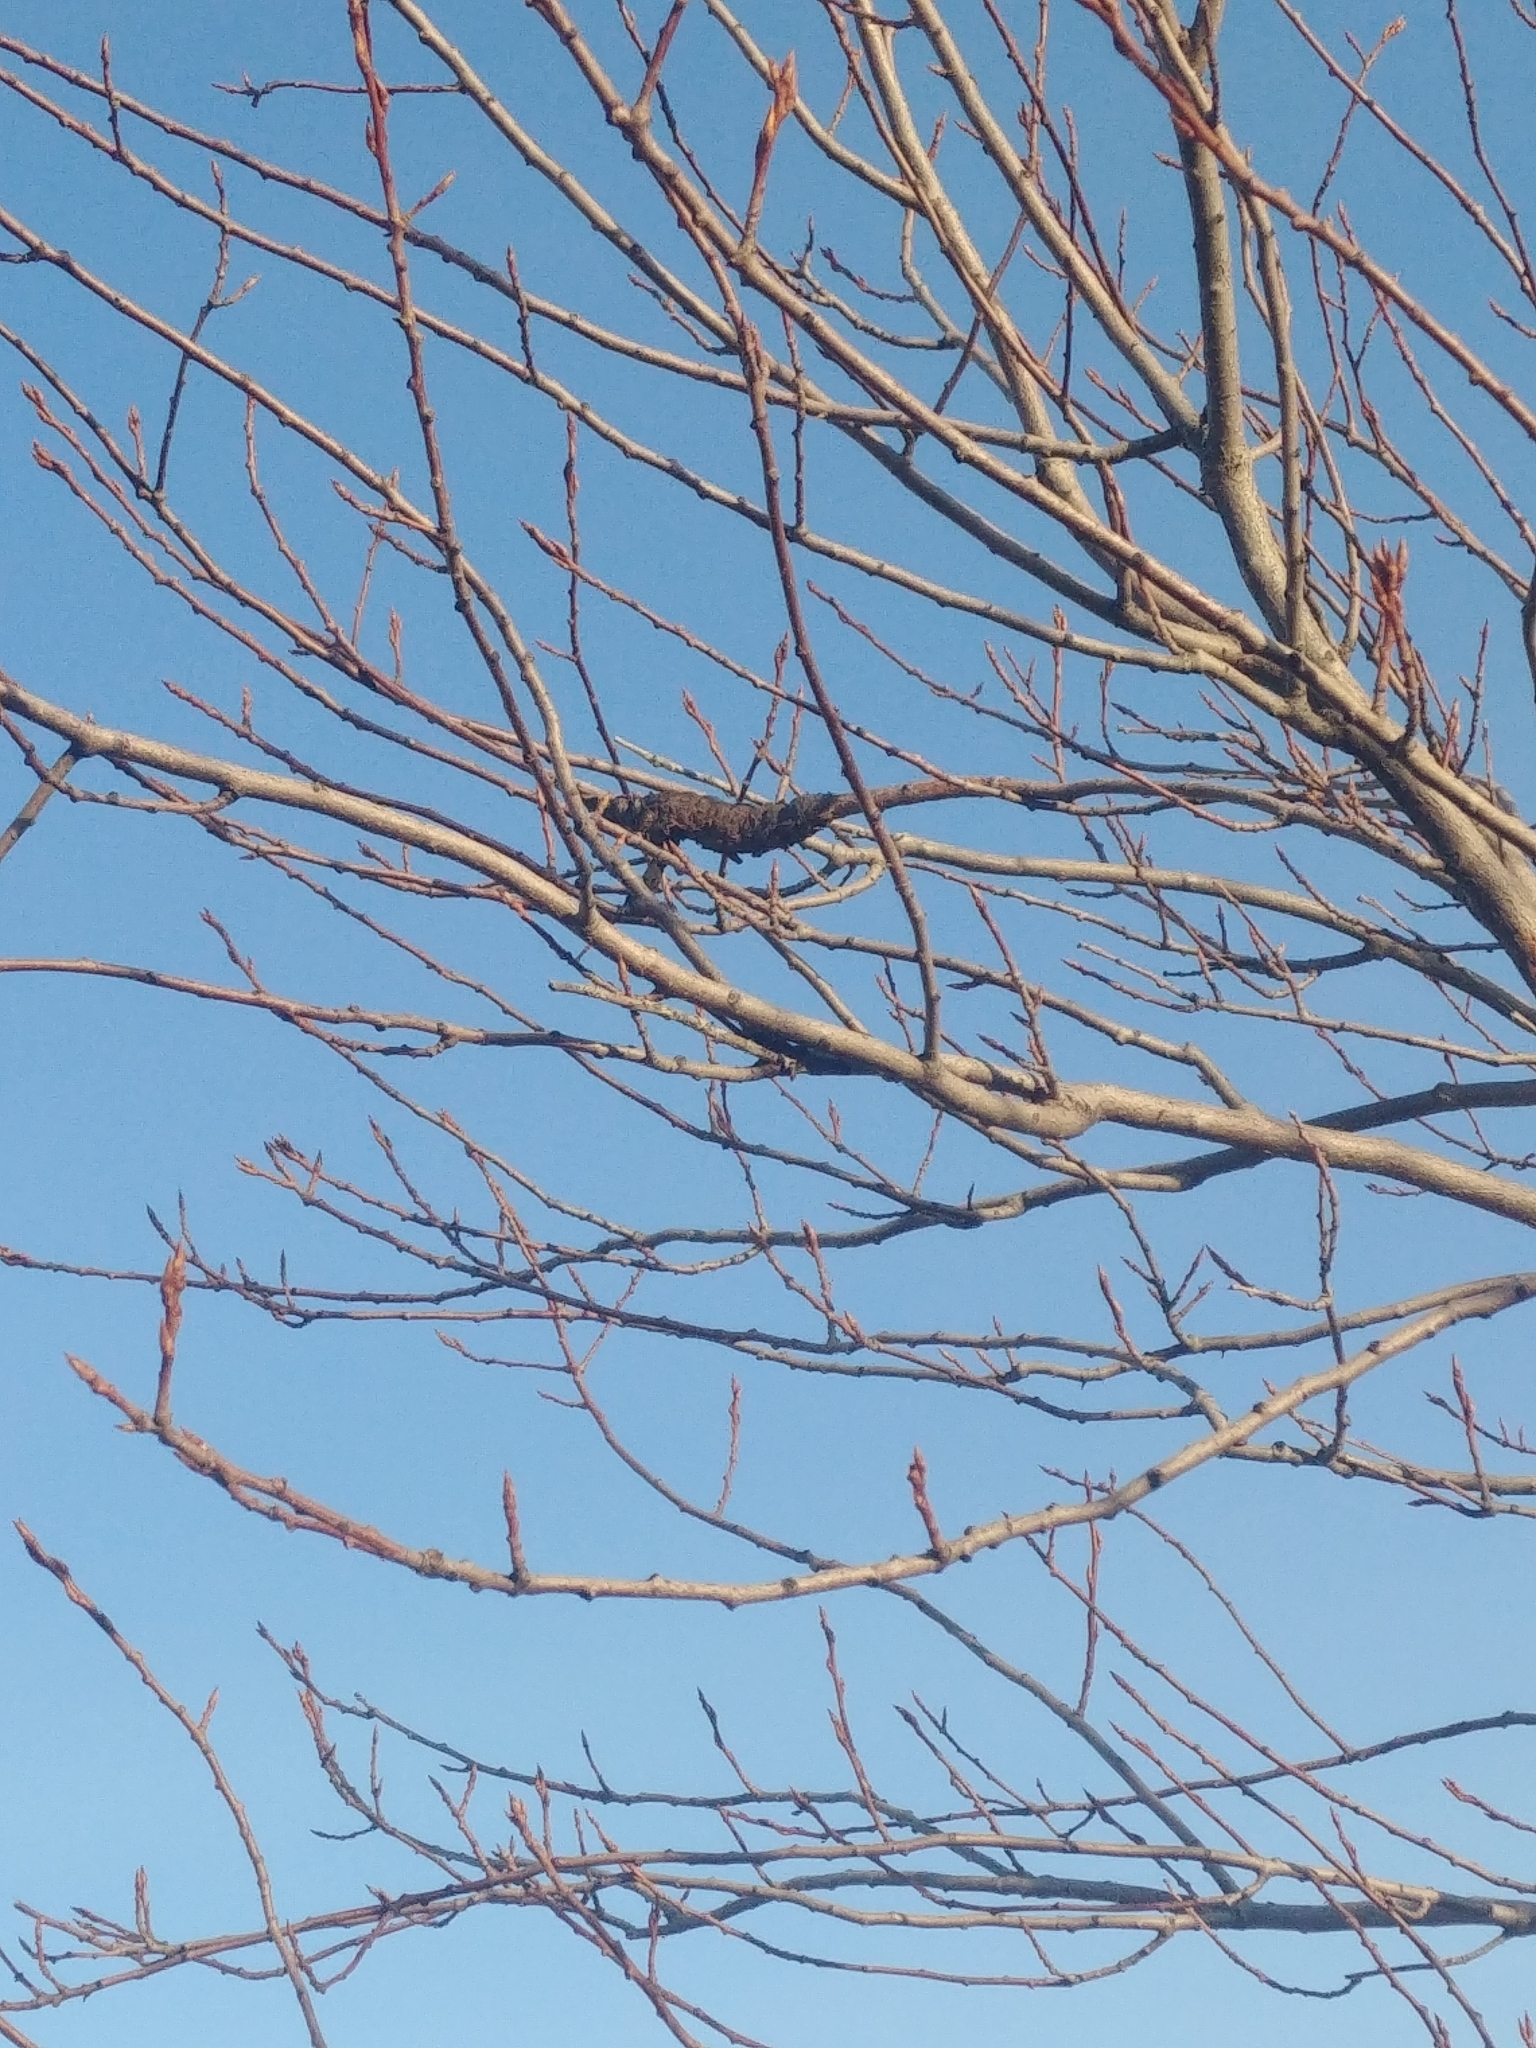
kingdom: Fungi
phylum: Ascomycota
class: Dothideomycetes
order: Venturiales
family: Venturiaceae
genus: Apiosporina
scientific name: Apiosporina morbosa
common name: Black knot
